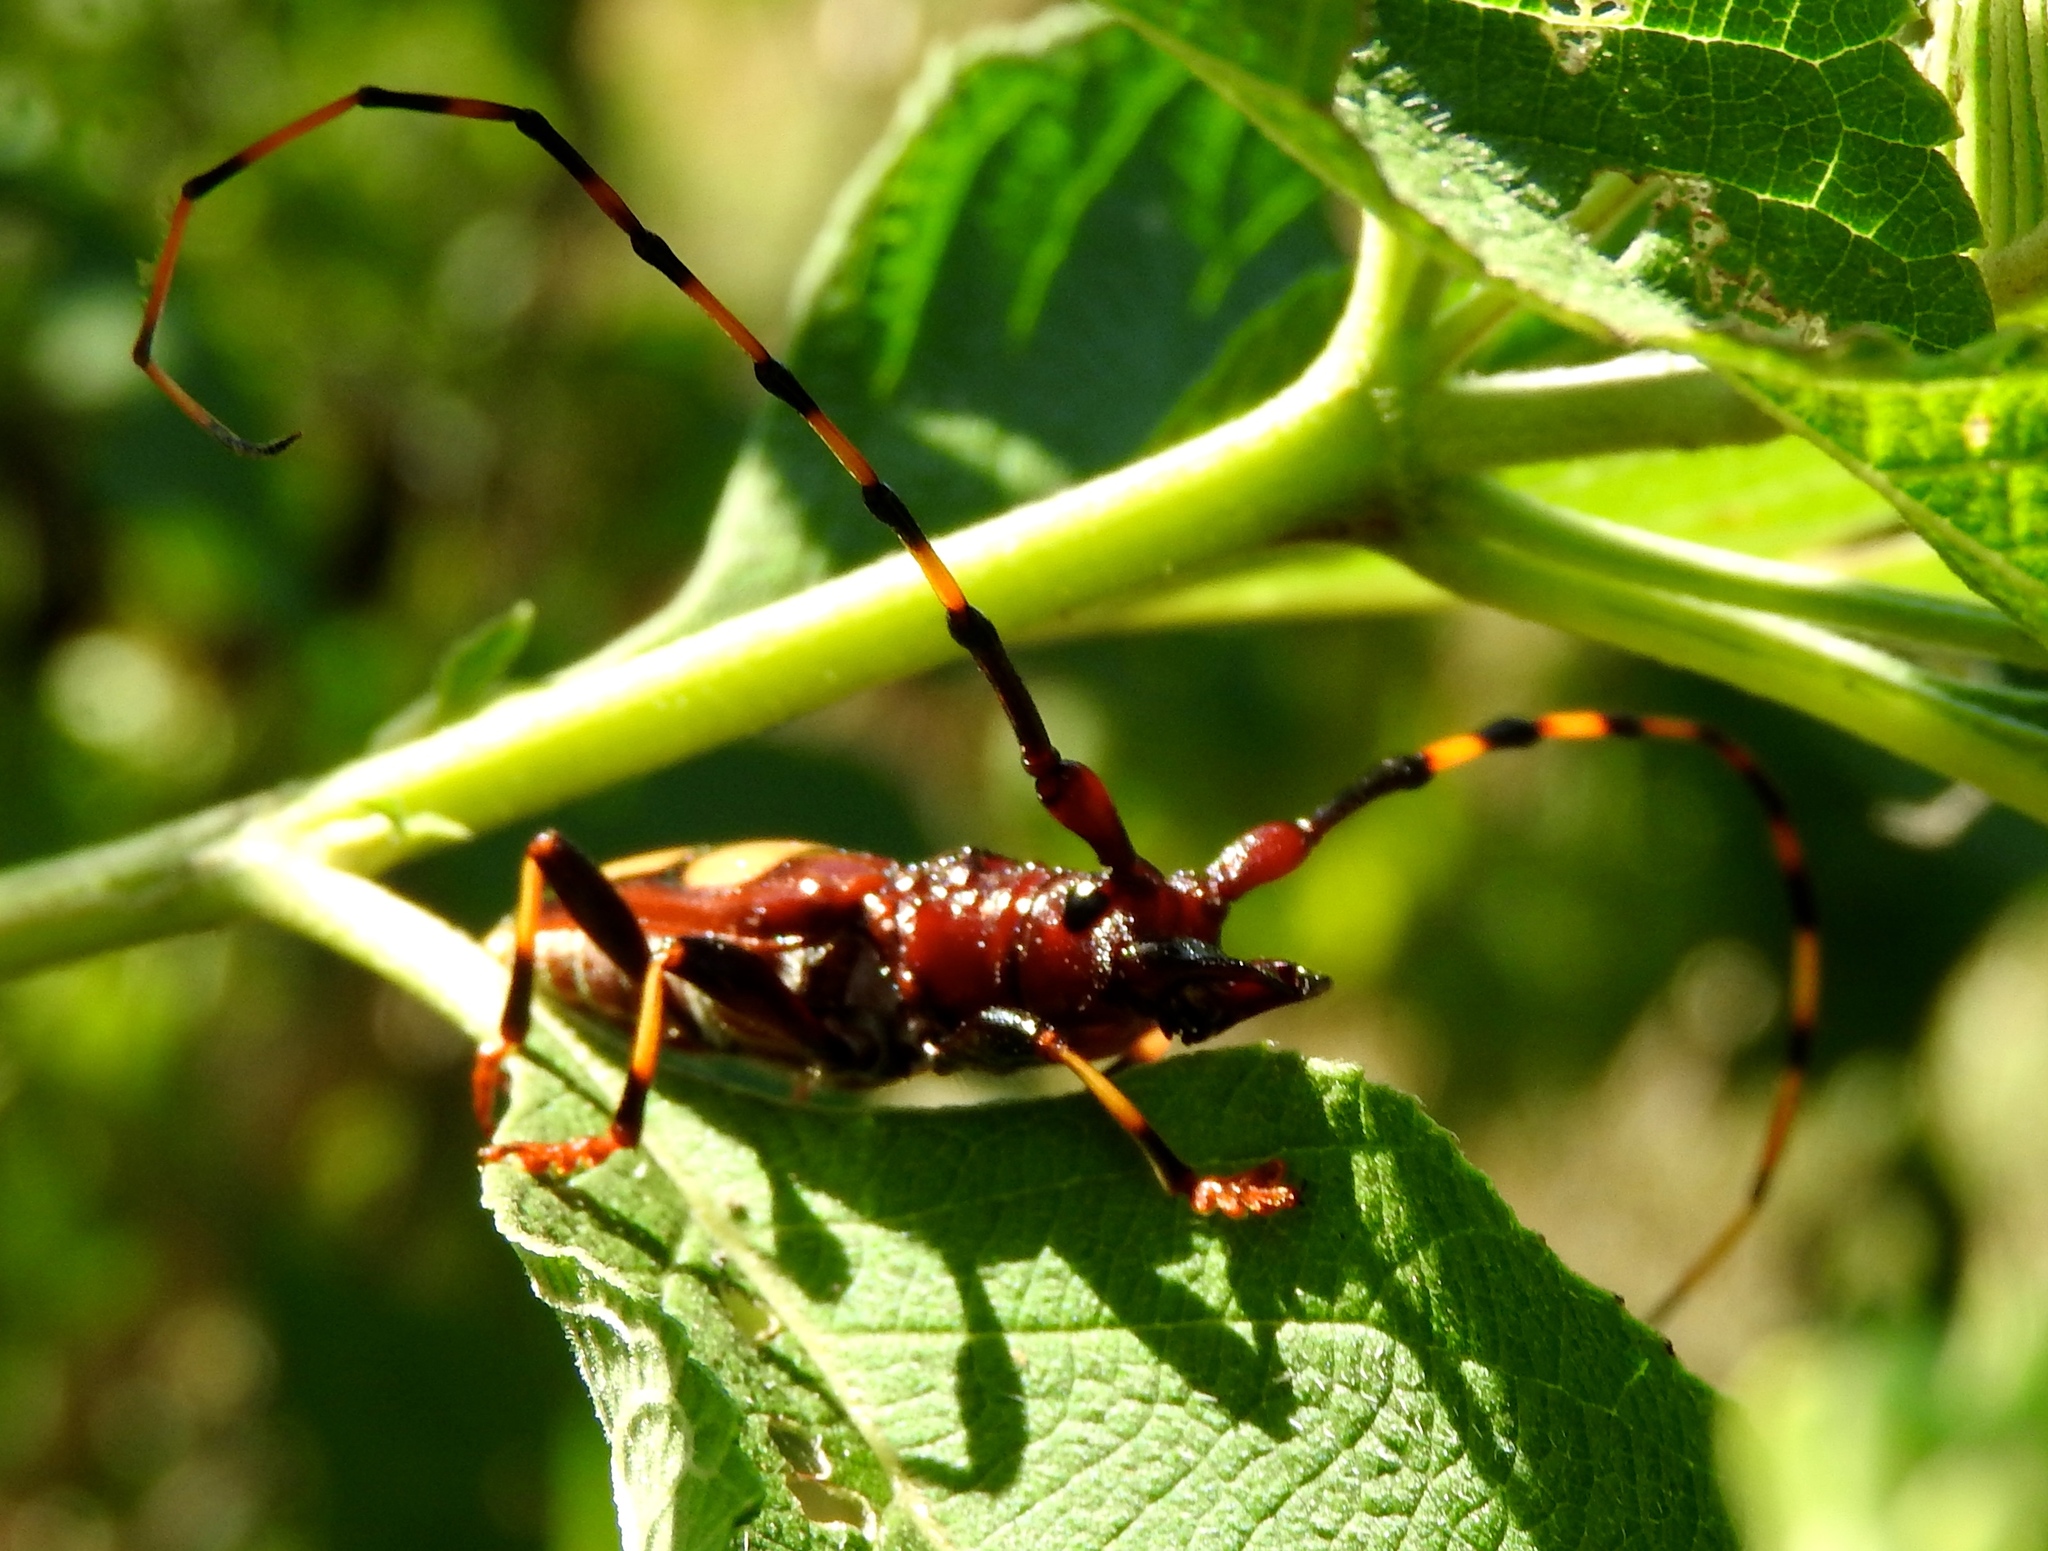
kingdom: Animalia
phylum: Arthropoda
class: Insecta
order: Coleoptera
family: Cerambycidae
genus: Trachyderes
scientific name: Trachyderes mandibularis
